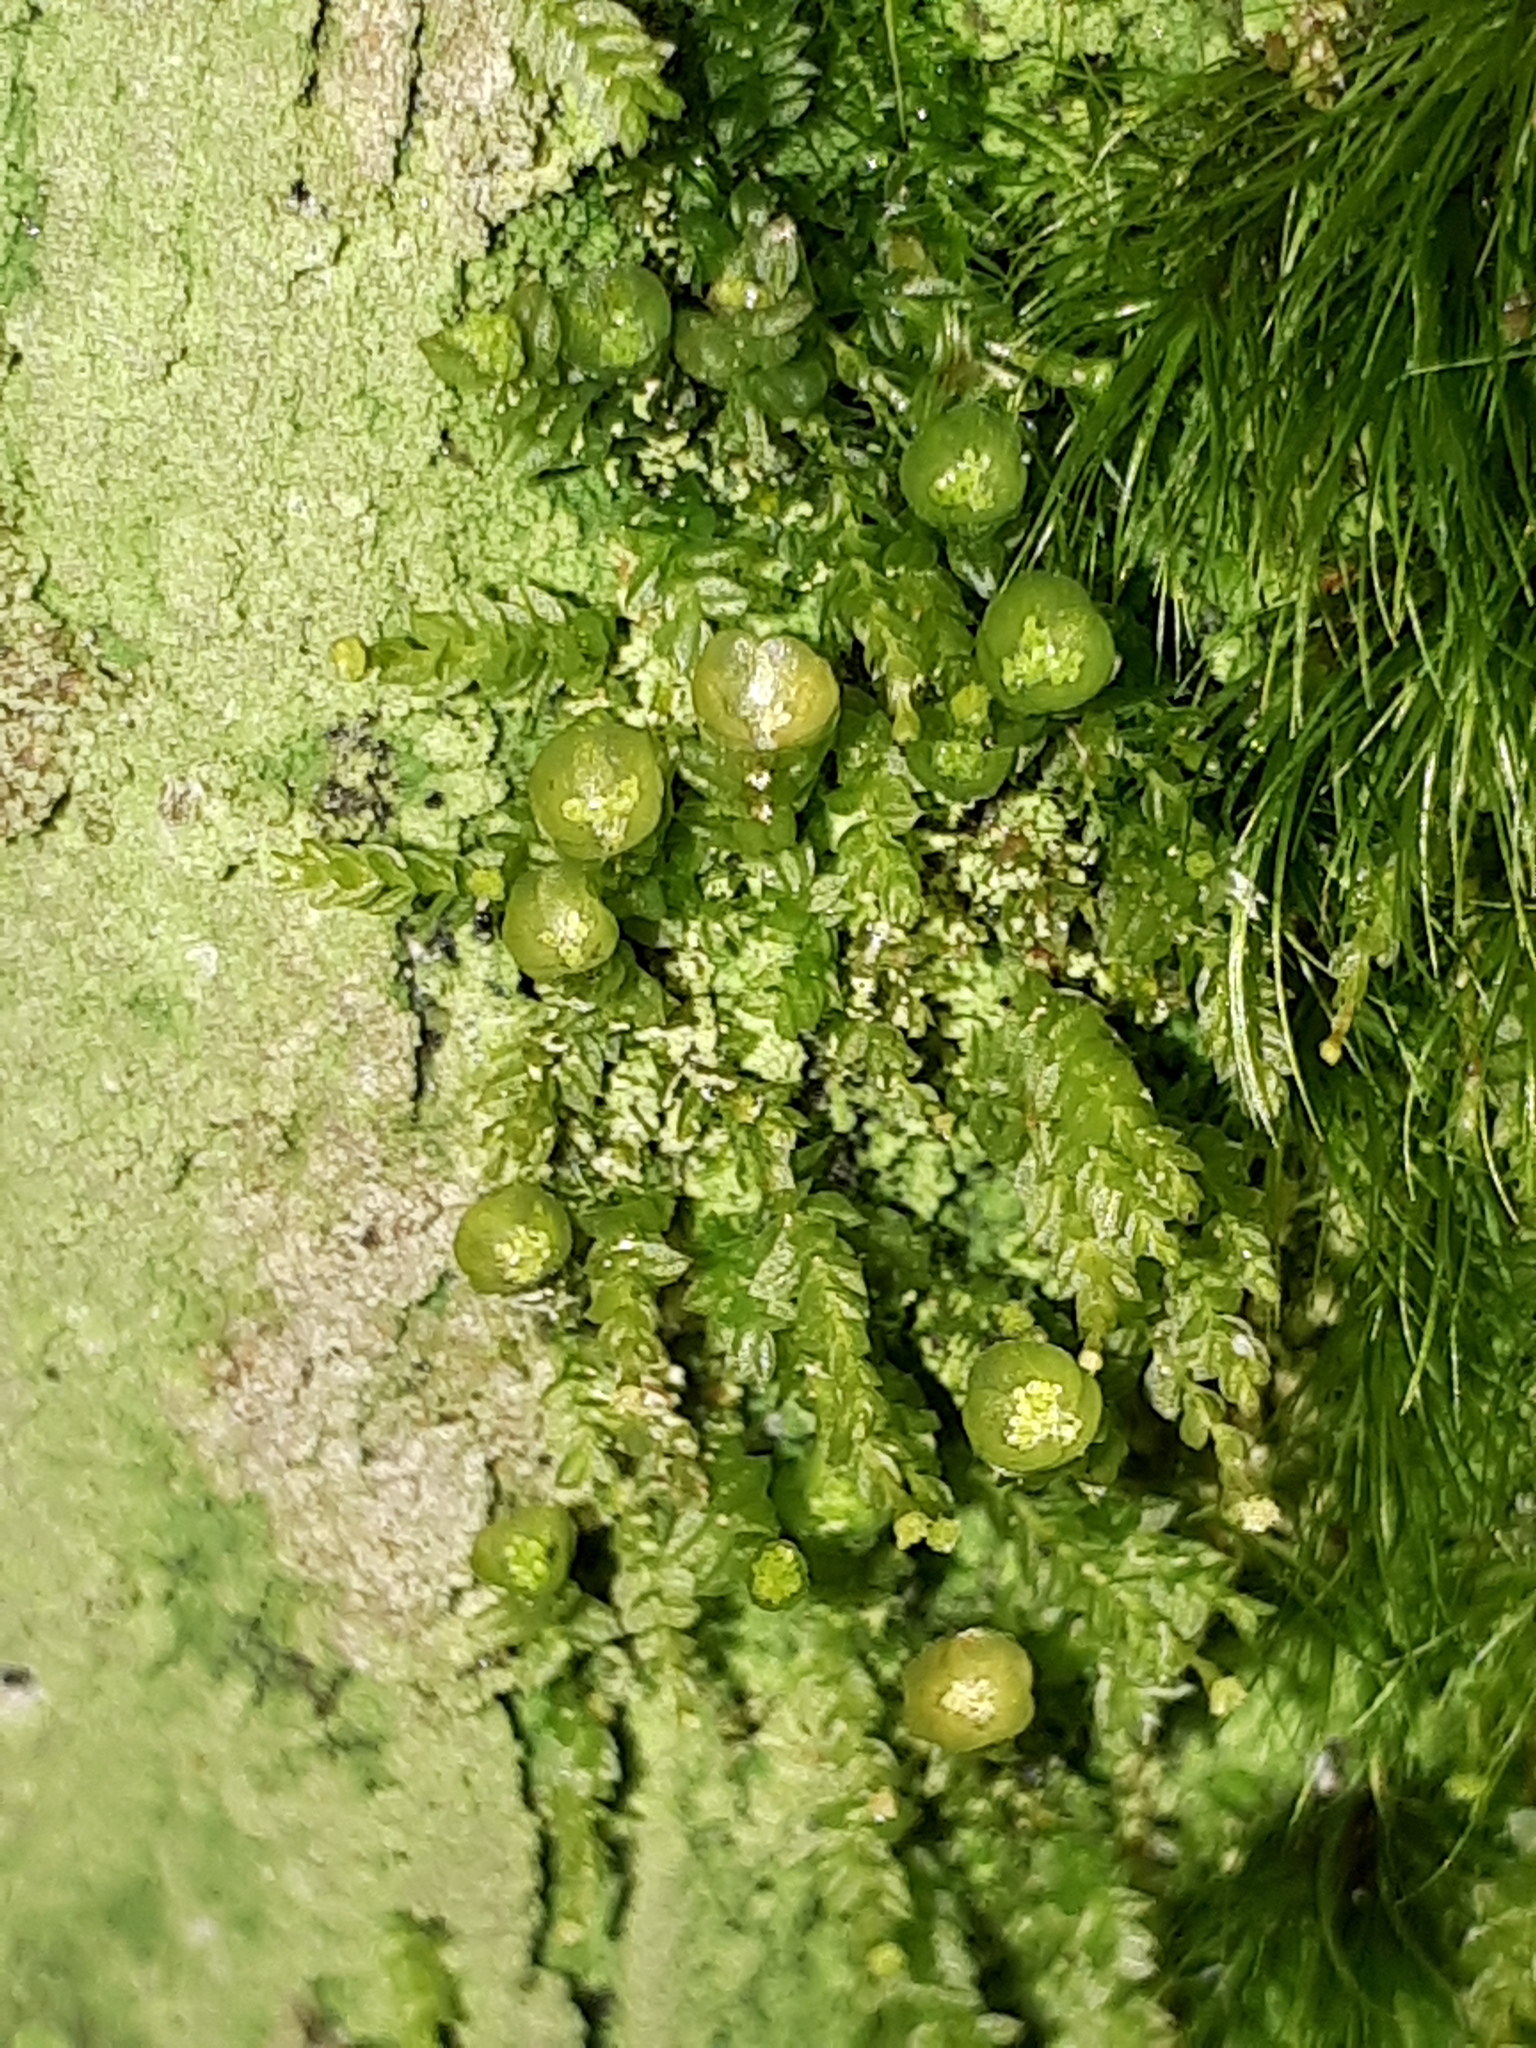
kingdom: Plantae
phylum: Bryophyta
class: Polytrichopsida
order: Tetraphidales
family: Tetraphidaceae
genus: Tetraphis
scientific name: Tetraphis pellucida
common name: Common four-toothed moss
